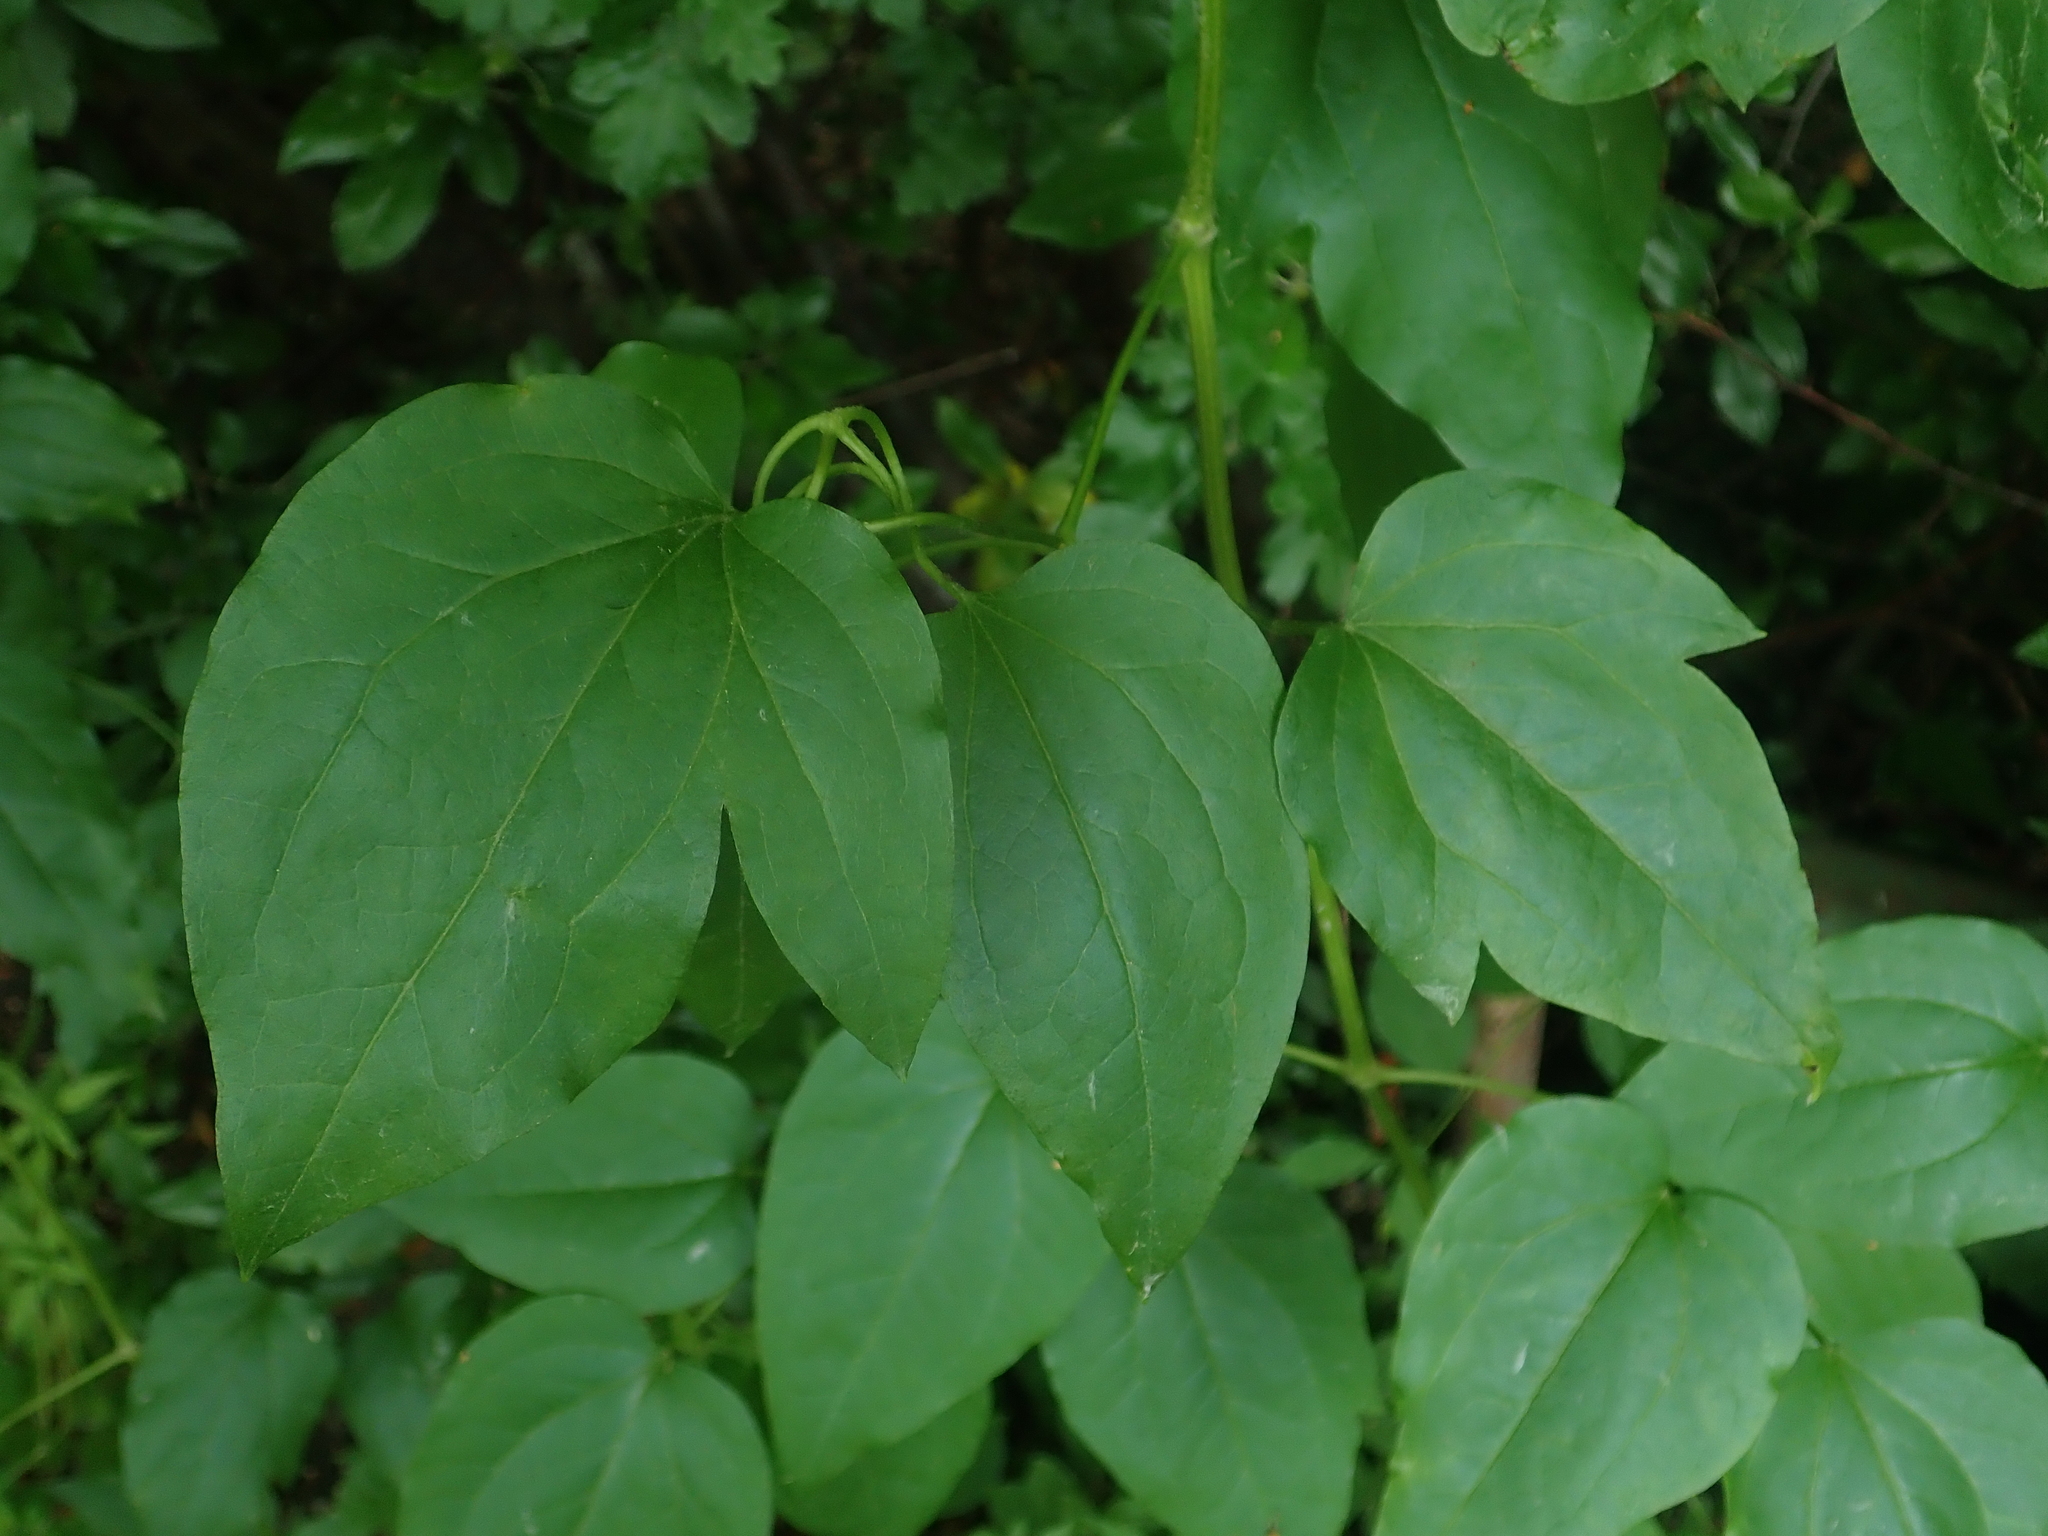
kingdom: Plantae
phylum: Tracheophyta
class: Magnoliopsida
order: Ranunculales
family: Ranunculaceae
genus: Clematis
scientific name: Clematis vitalba
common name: Evergreen clematis
